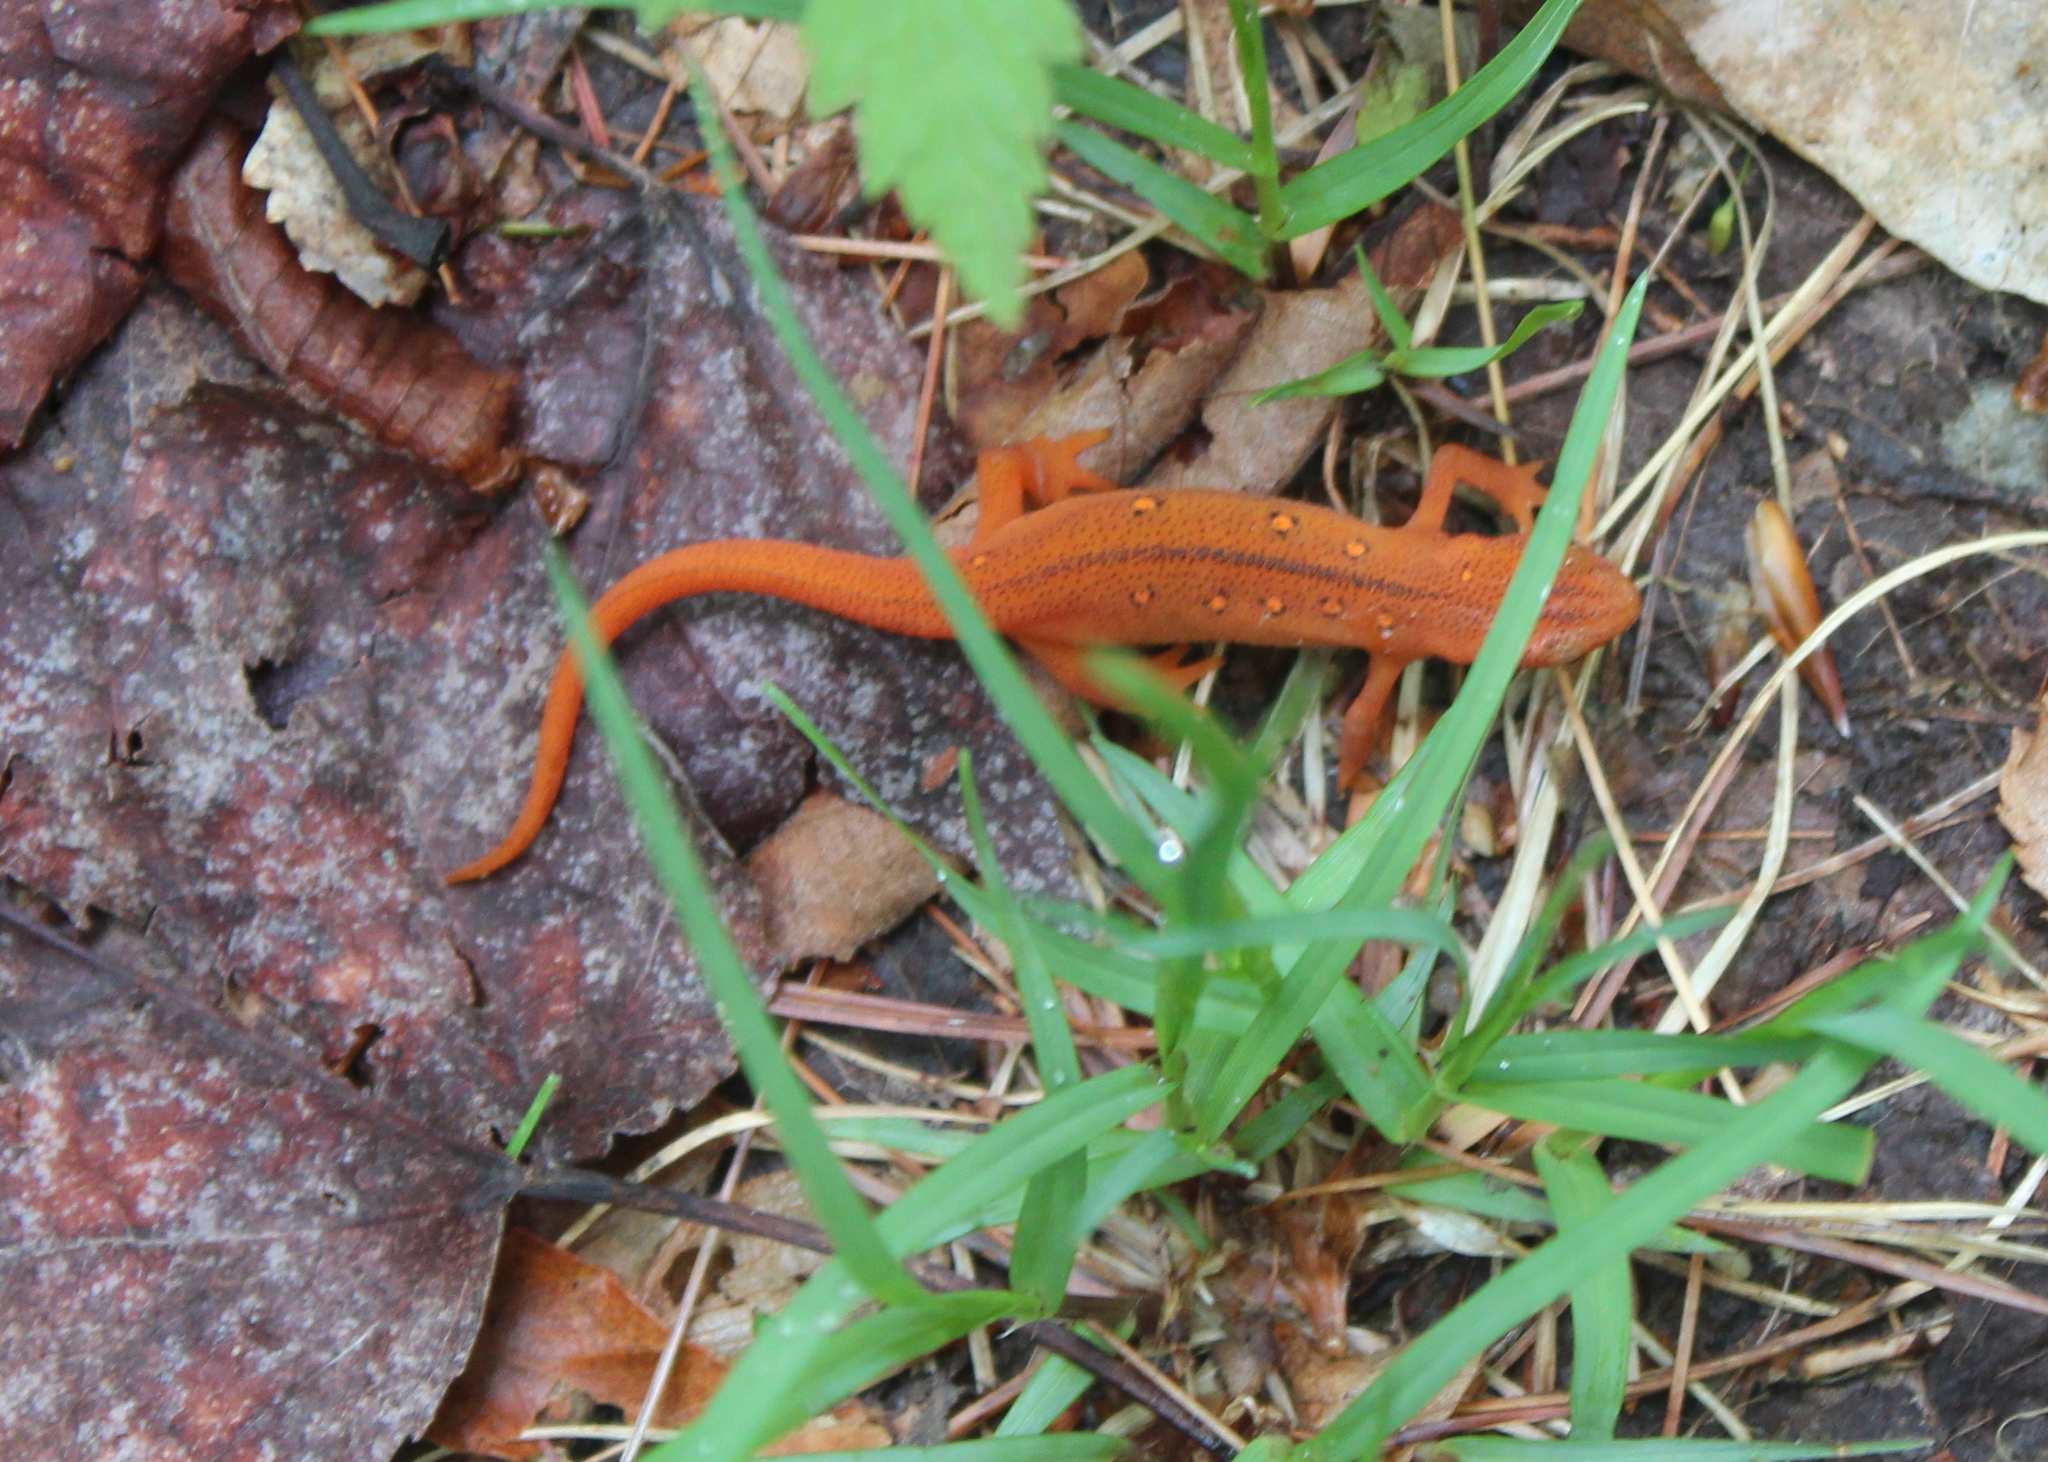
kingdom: Animalia
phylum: Chordata
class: Amphibia
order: Caudata
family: Salamandridae
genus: Notophthalmus
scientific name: Notophthalmus viridescens
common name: Eastern newt
